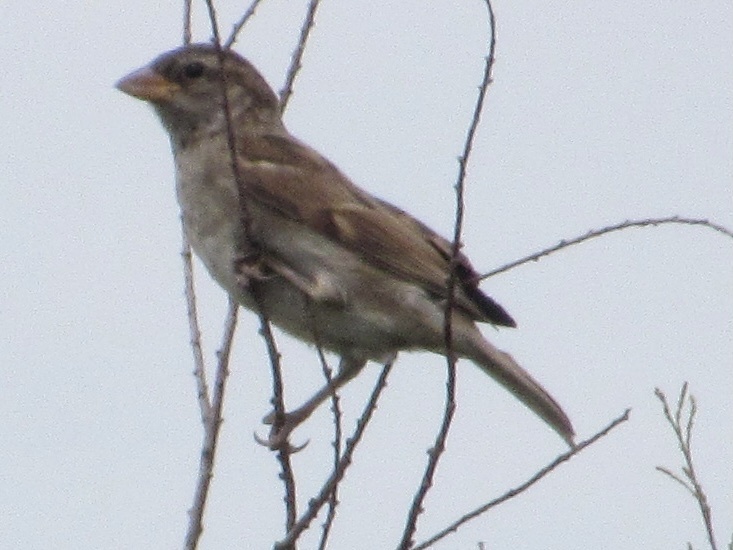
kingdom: Animalia
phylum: Chordata
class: Aves
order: Passeriformes
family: Passeridae
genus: Passer
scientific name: Passer domesticus
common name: House sparrow
